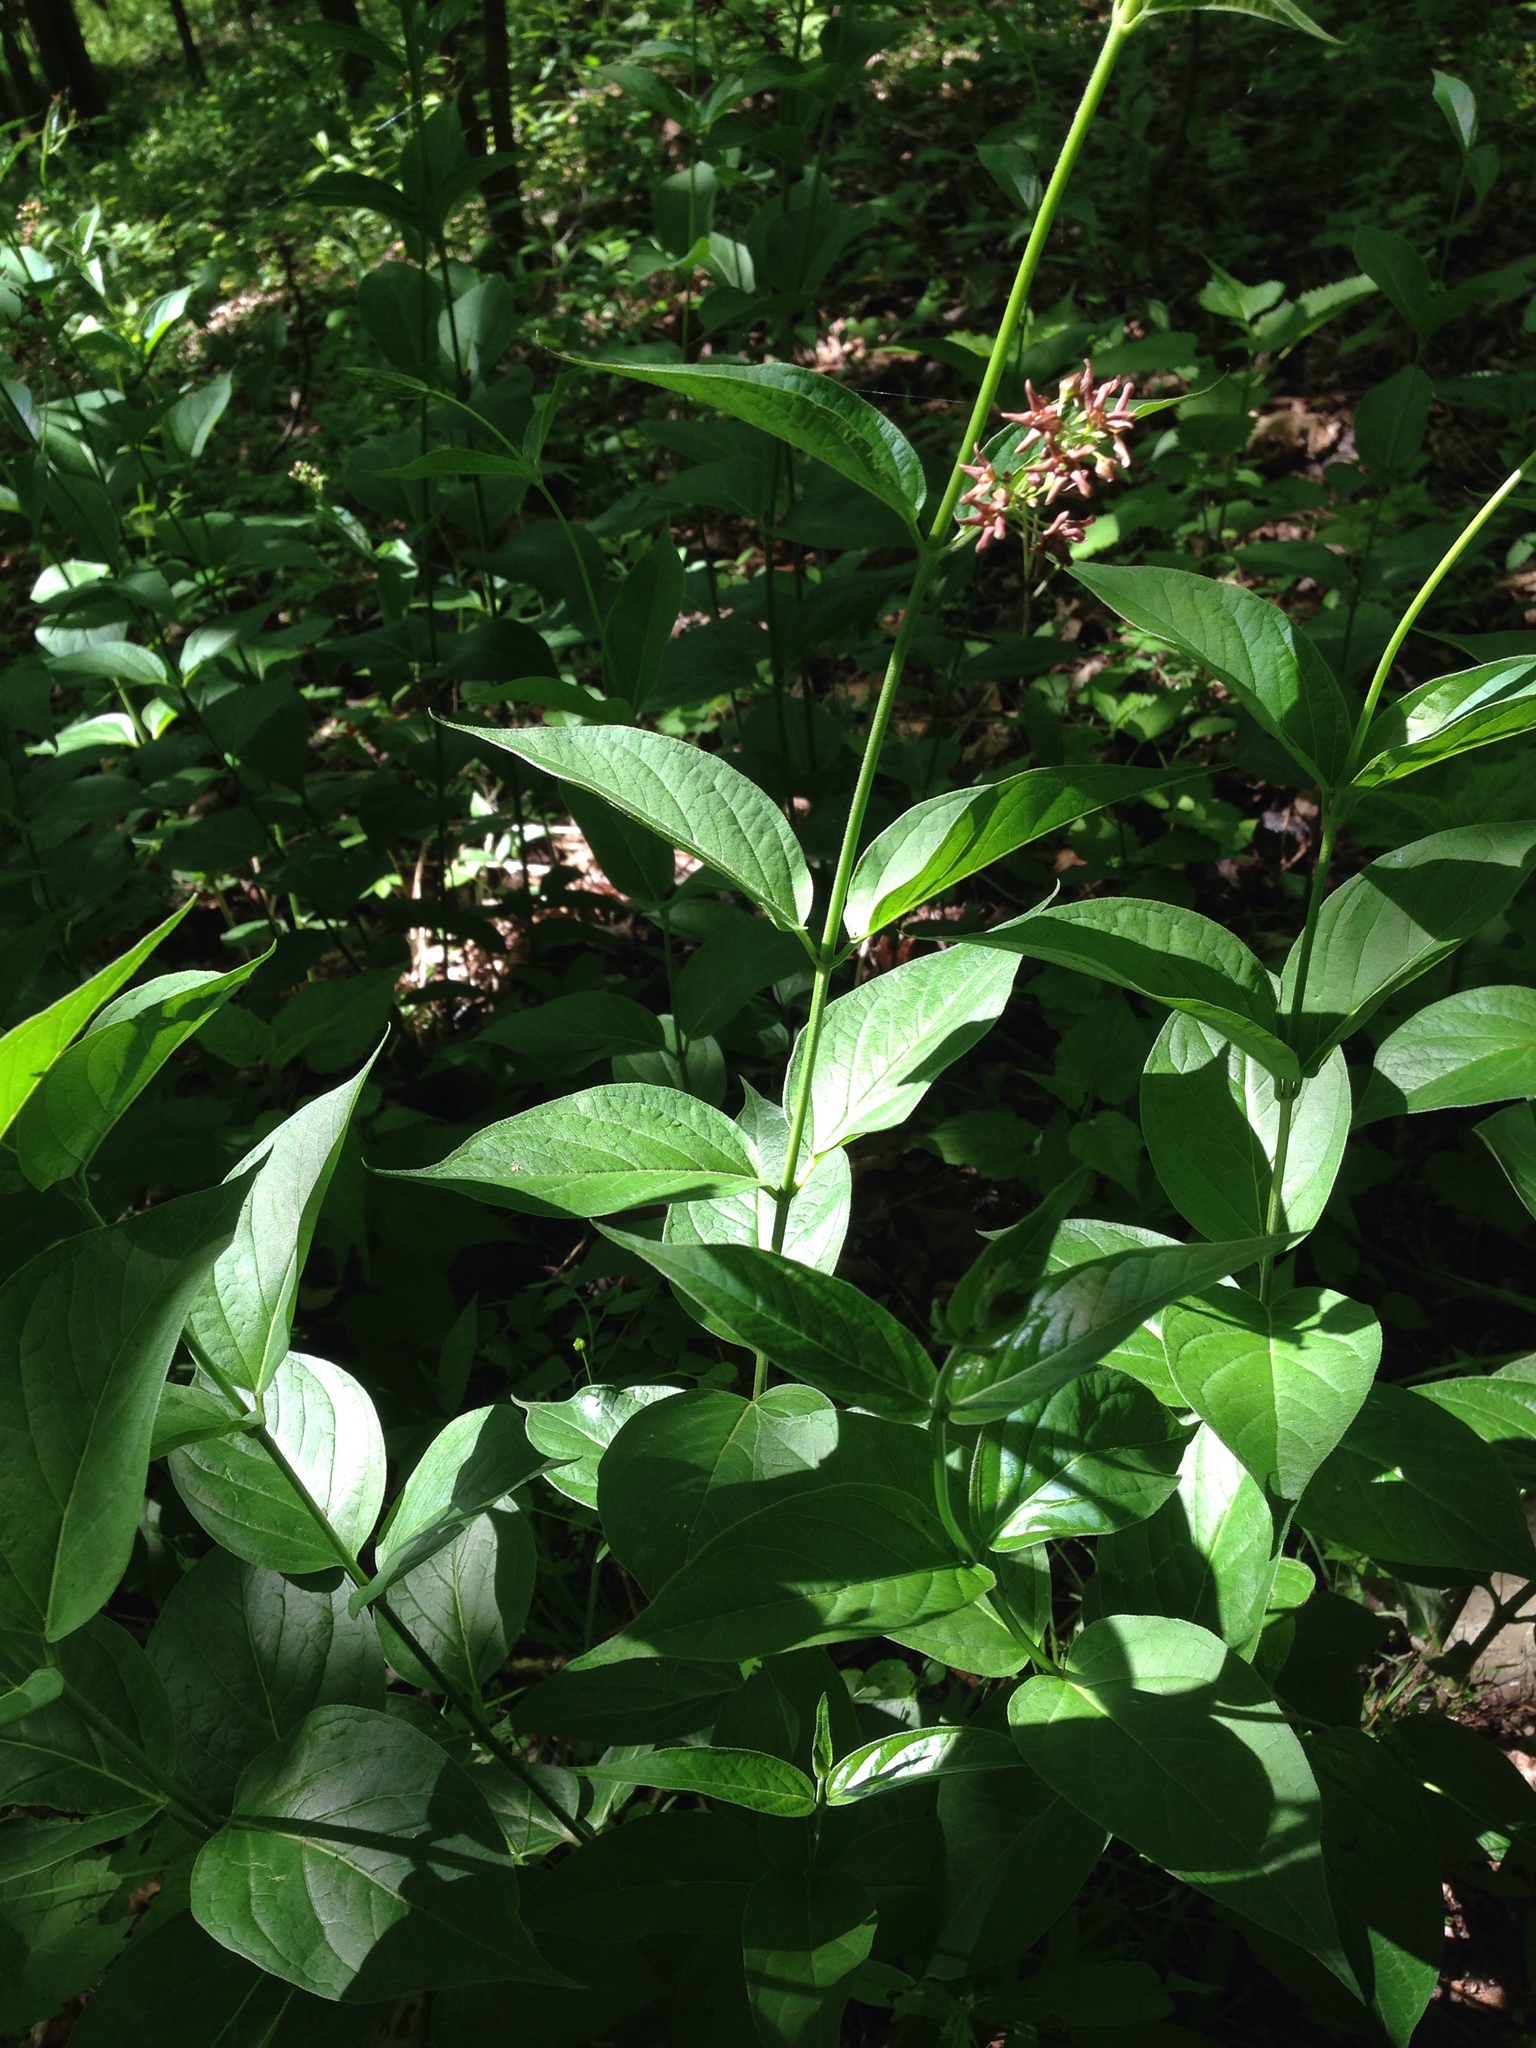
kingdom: Plantae
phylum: Tracheophyta
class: Magnoliopsida
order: Gentianales
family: Apocynaceae
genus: Vincetoxicum
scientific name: Vincetoxicum rossicum
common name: Dog-strangling vine
